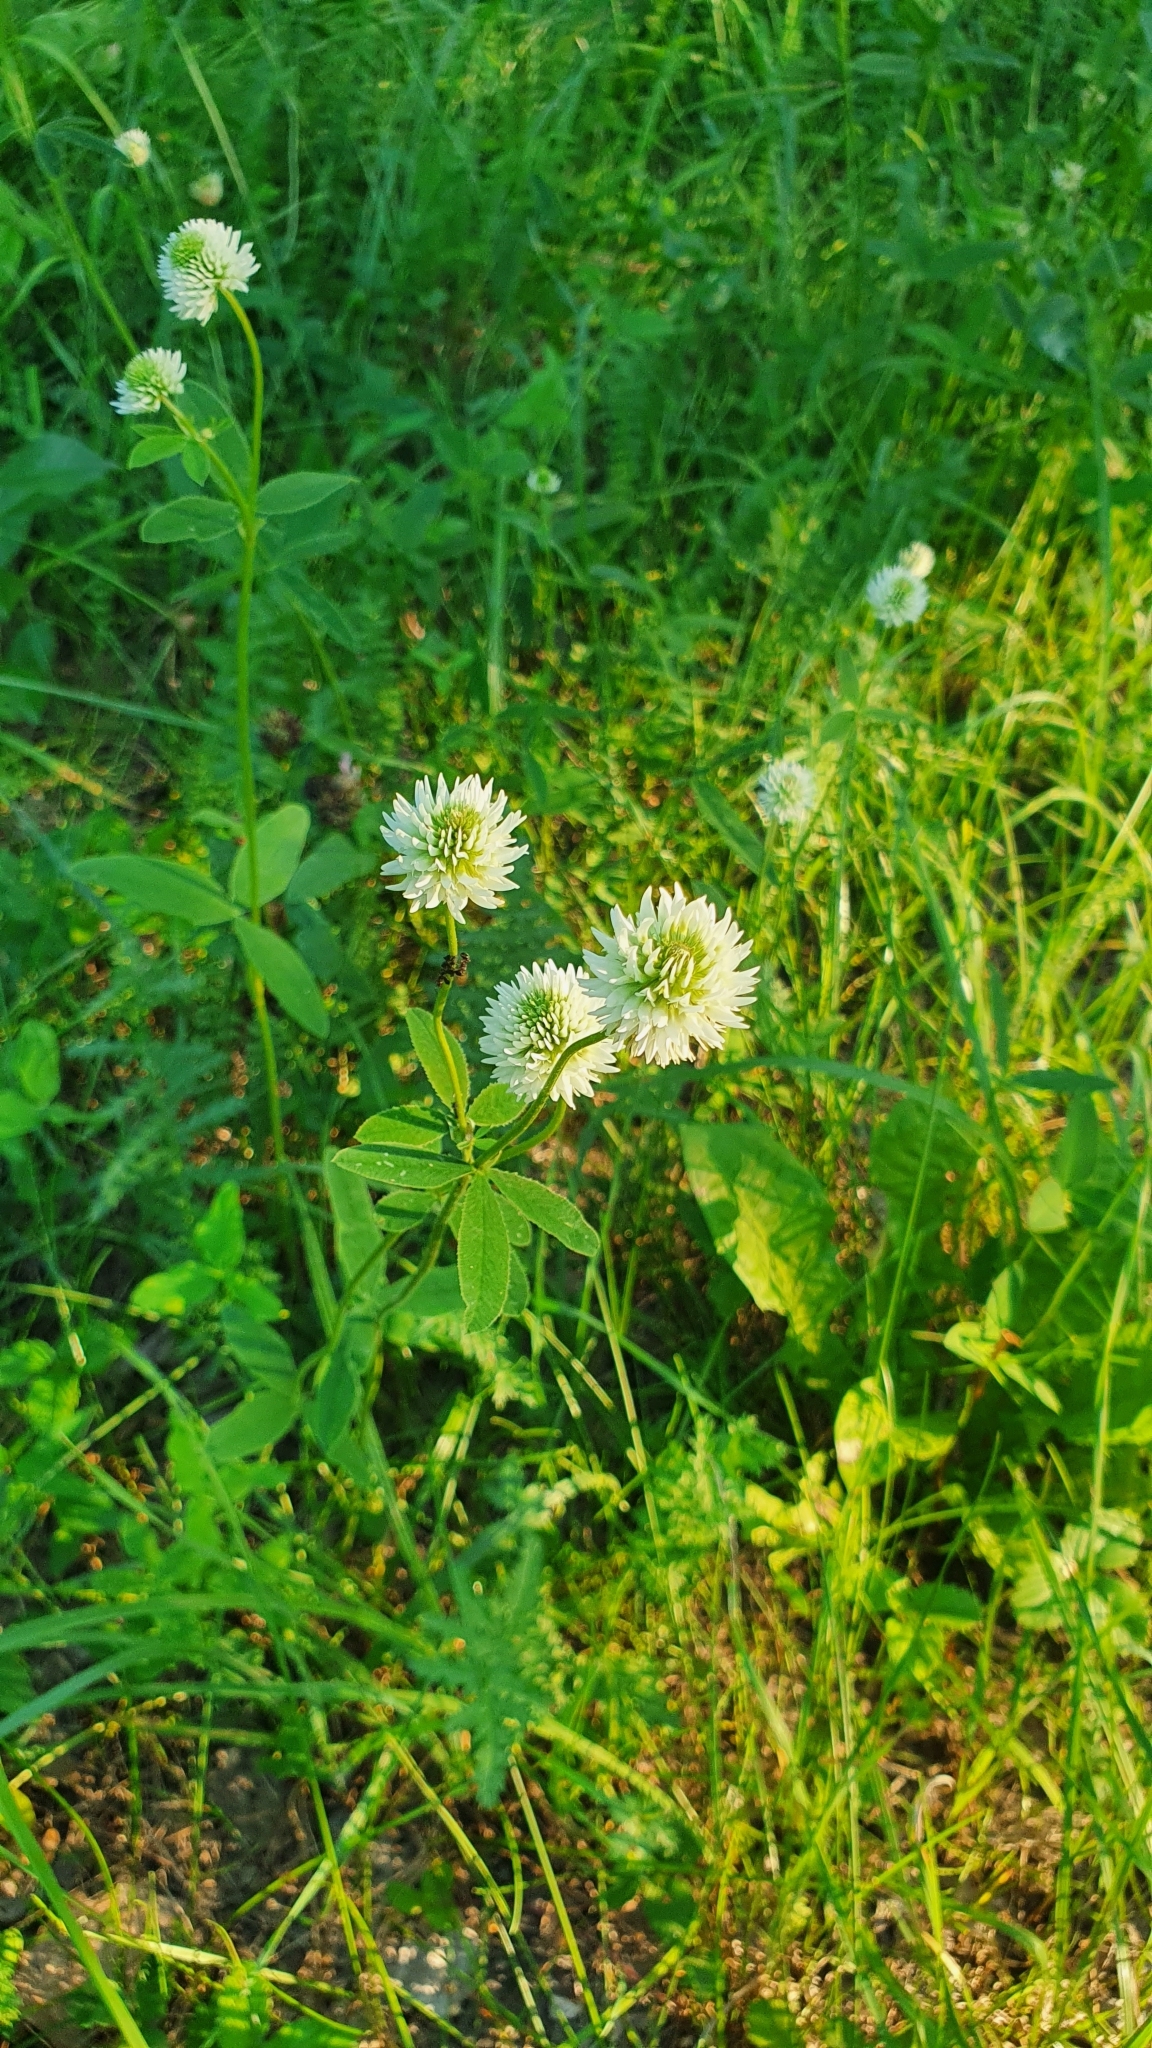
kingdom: Plantae
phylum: Tracheophyta
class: Magnoliopsida
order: Fabales
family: Fabaceae
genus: Trifolium
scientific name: Trifolium montanum
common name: Mountain clover
